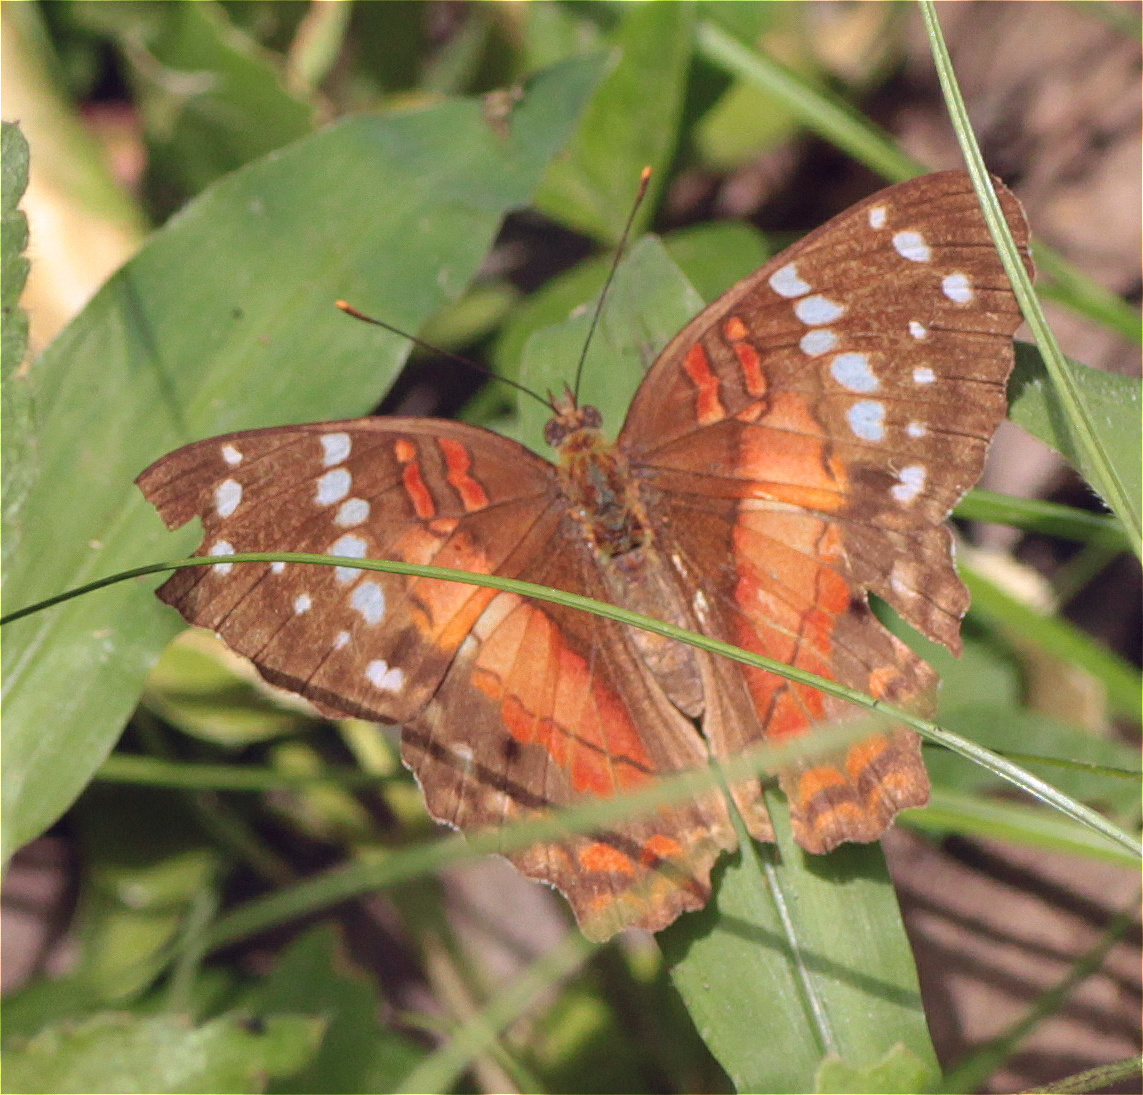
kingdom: Animalia
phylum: Arthropoda
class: Insecta
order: Lepidoptera
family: Nymphalidae
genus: Anartia
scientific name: Anartia amathea
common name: Red peacock
